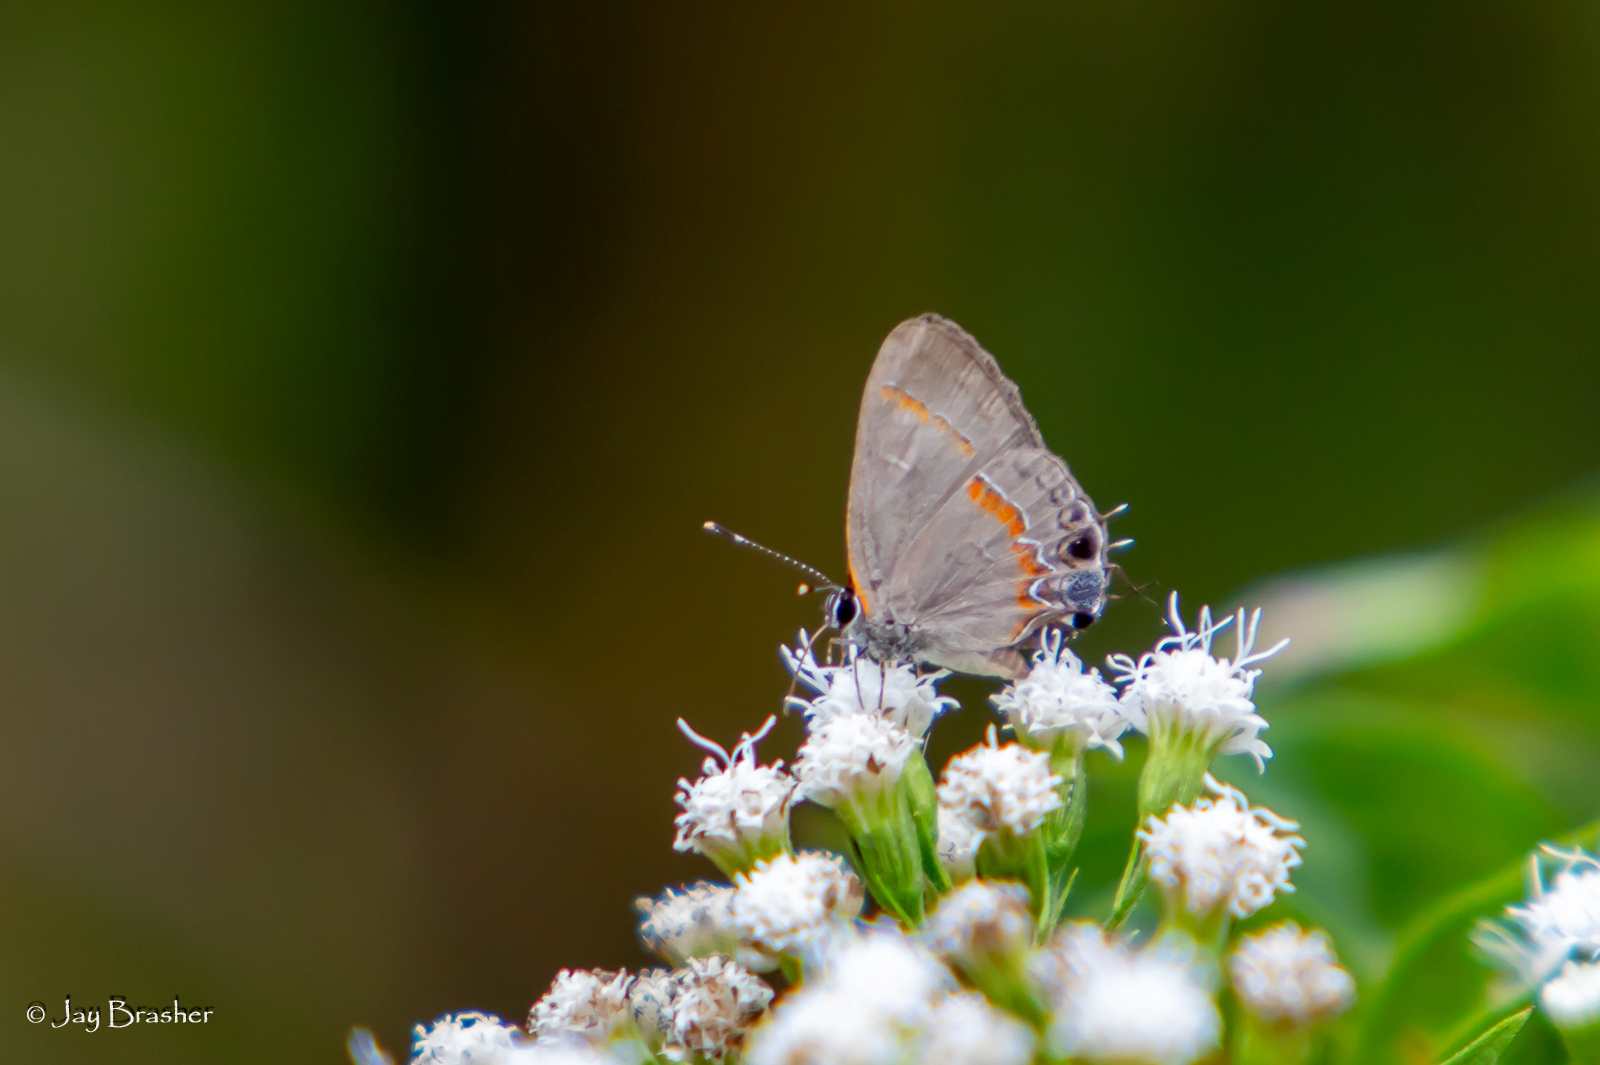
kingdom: Animalia
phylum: Arthropoda
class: Insecta
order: Lepidoptera
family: Lycaenidae
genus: Calycopis
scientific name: Calycopis cecrops
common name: Red-banded hairstreak
